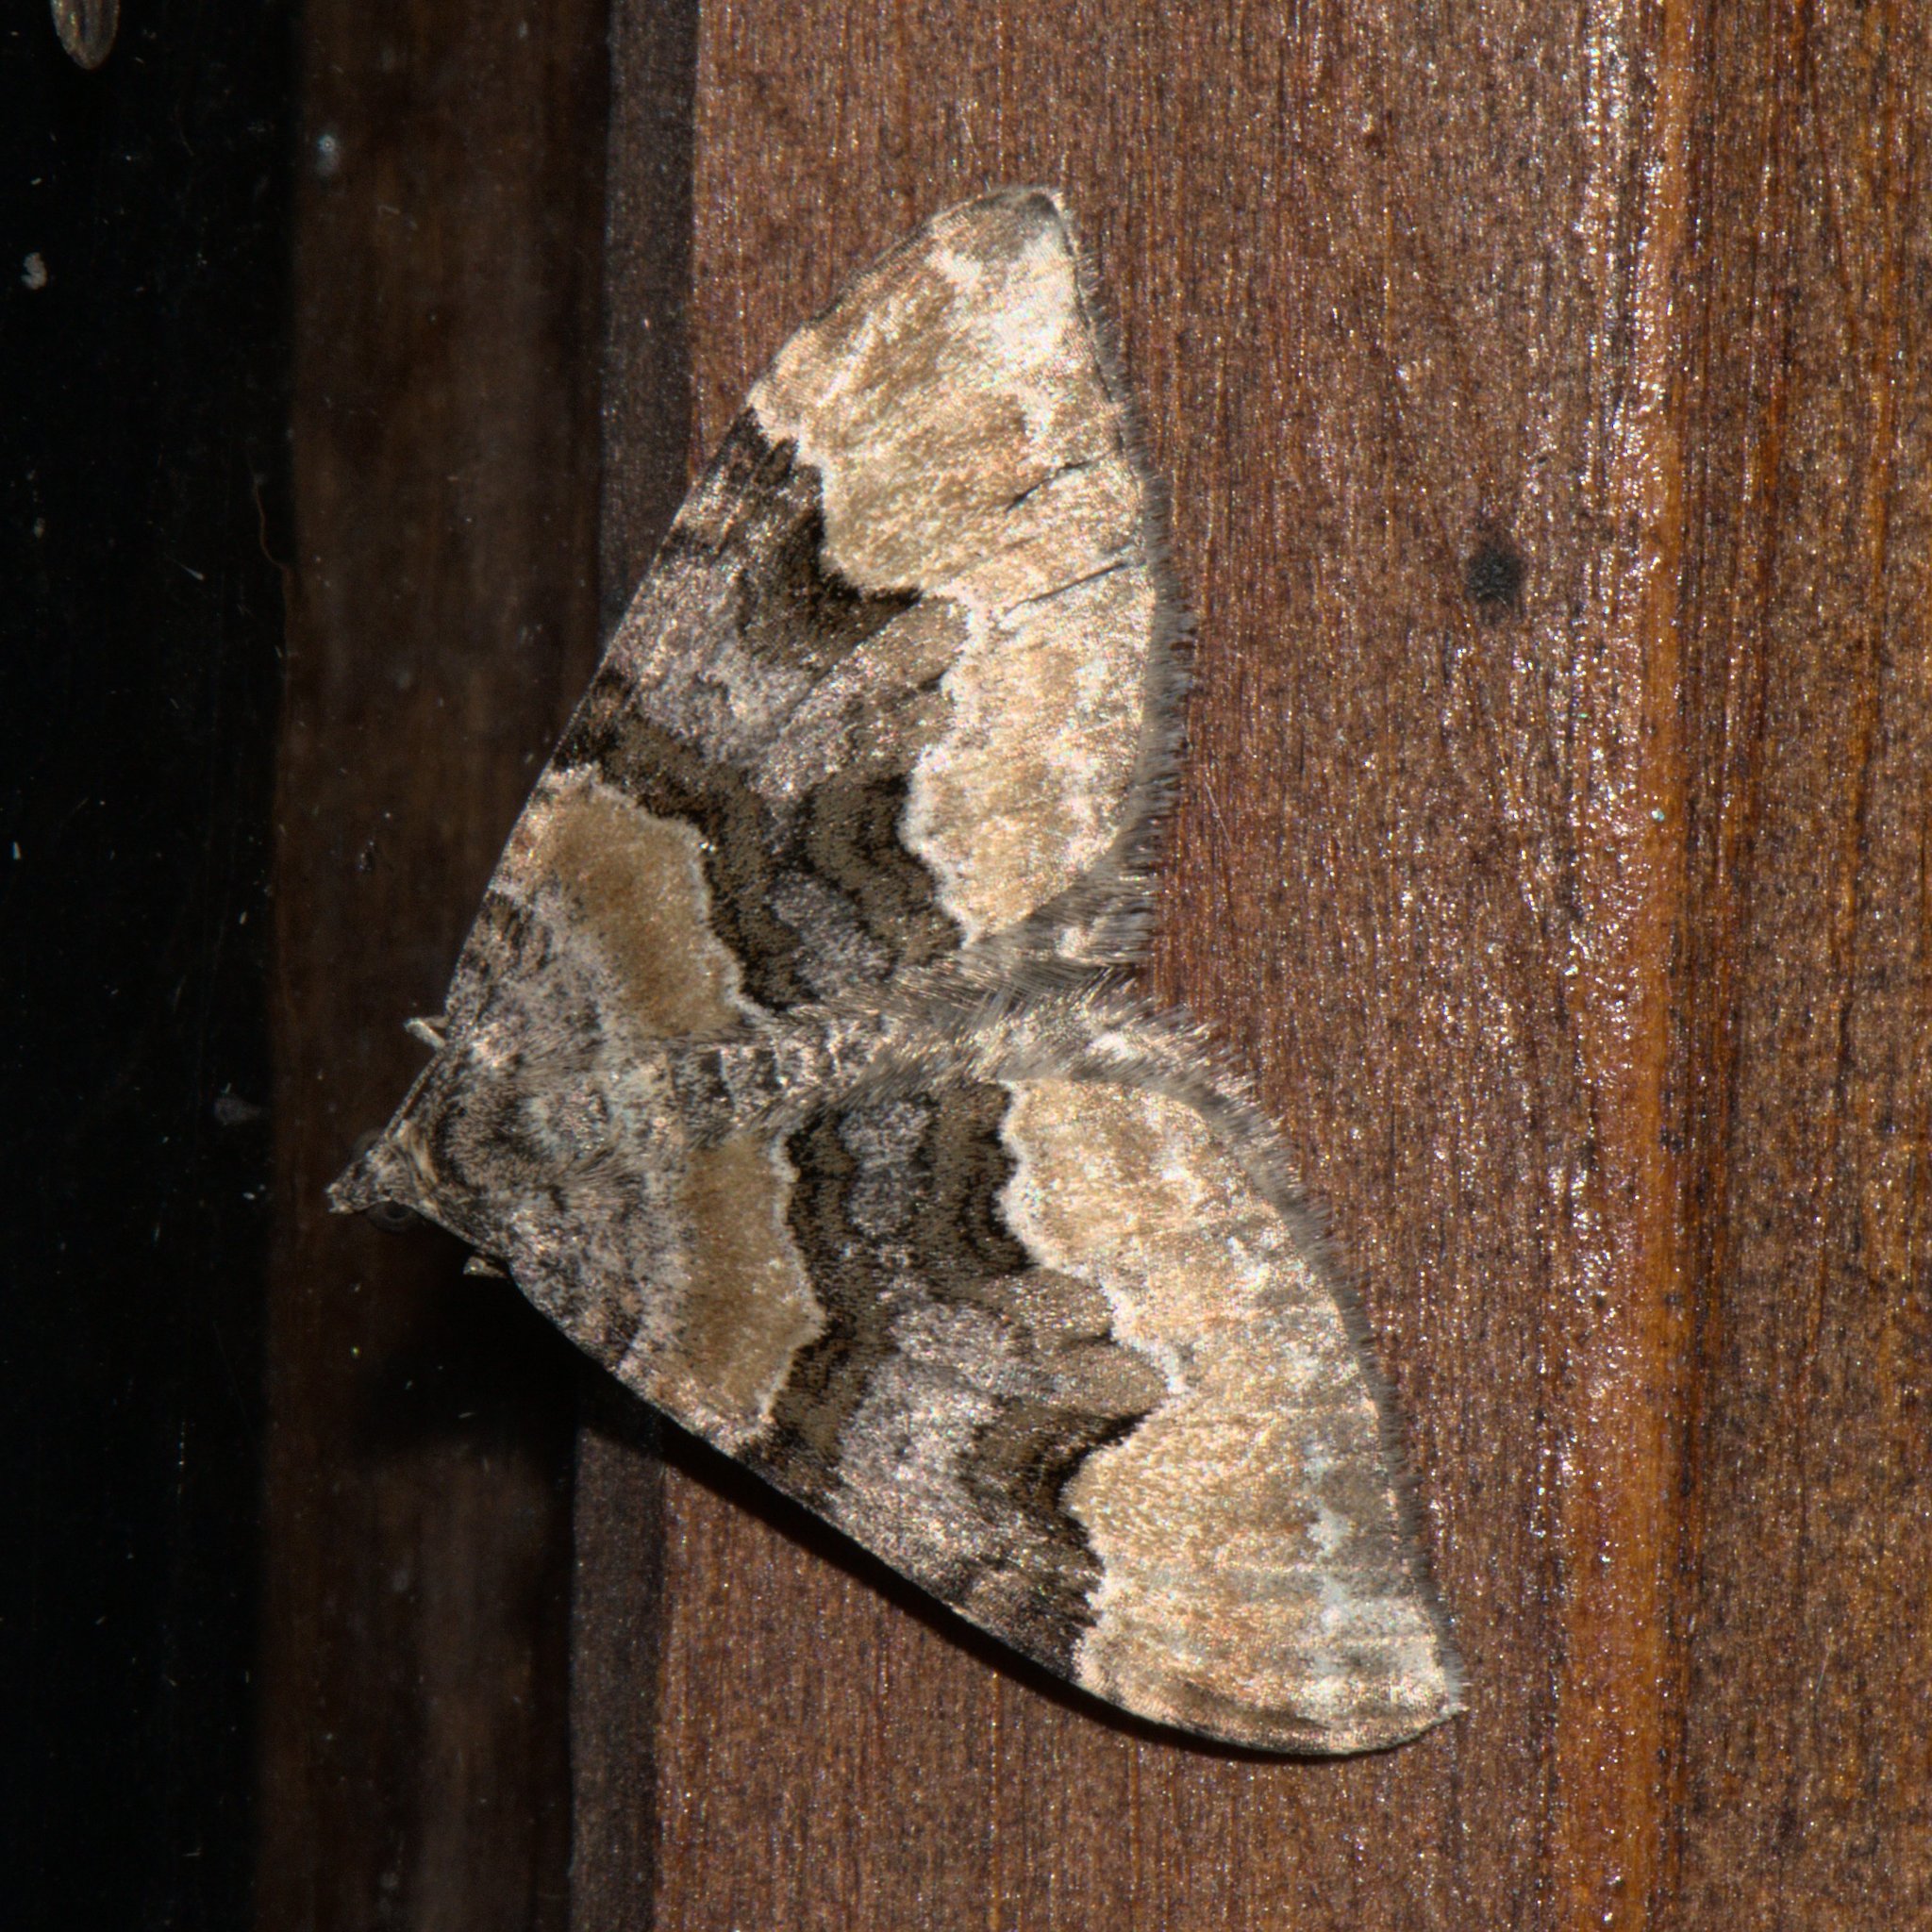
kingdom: Animalia
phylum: Arthropoda
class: Insecta
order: Lepidoptera
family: Geometridae
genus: Euphyia
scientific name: Euphyia subangulata
